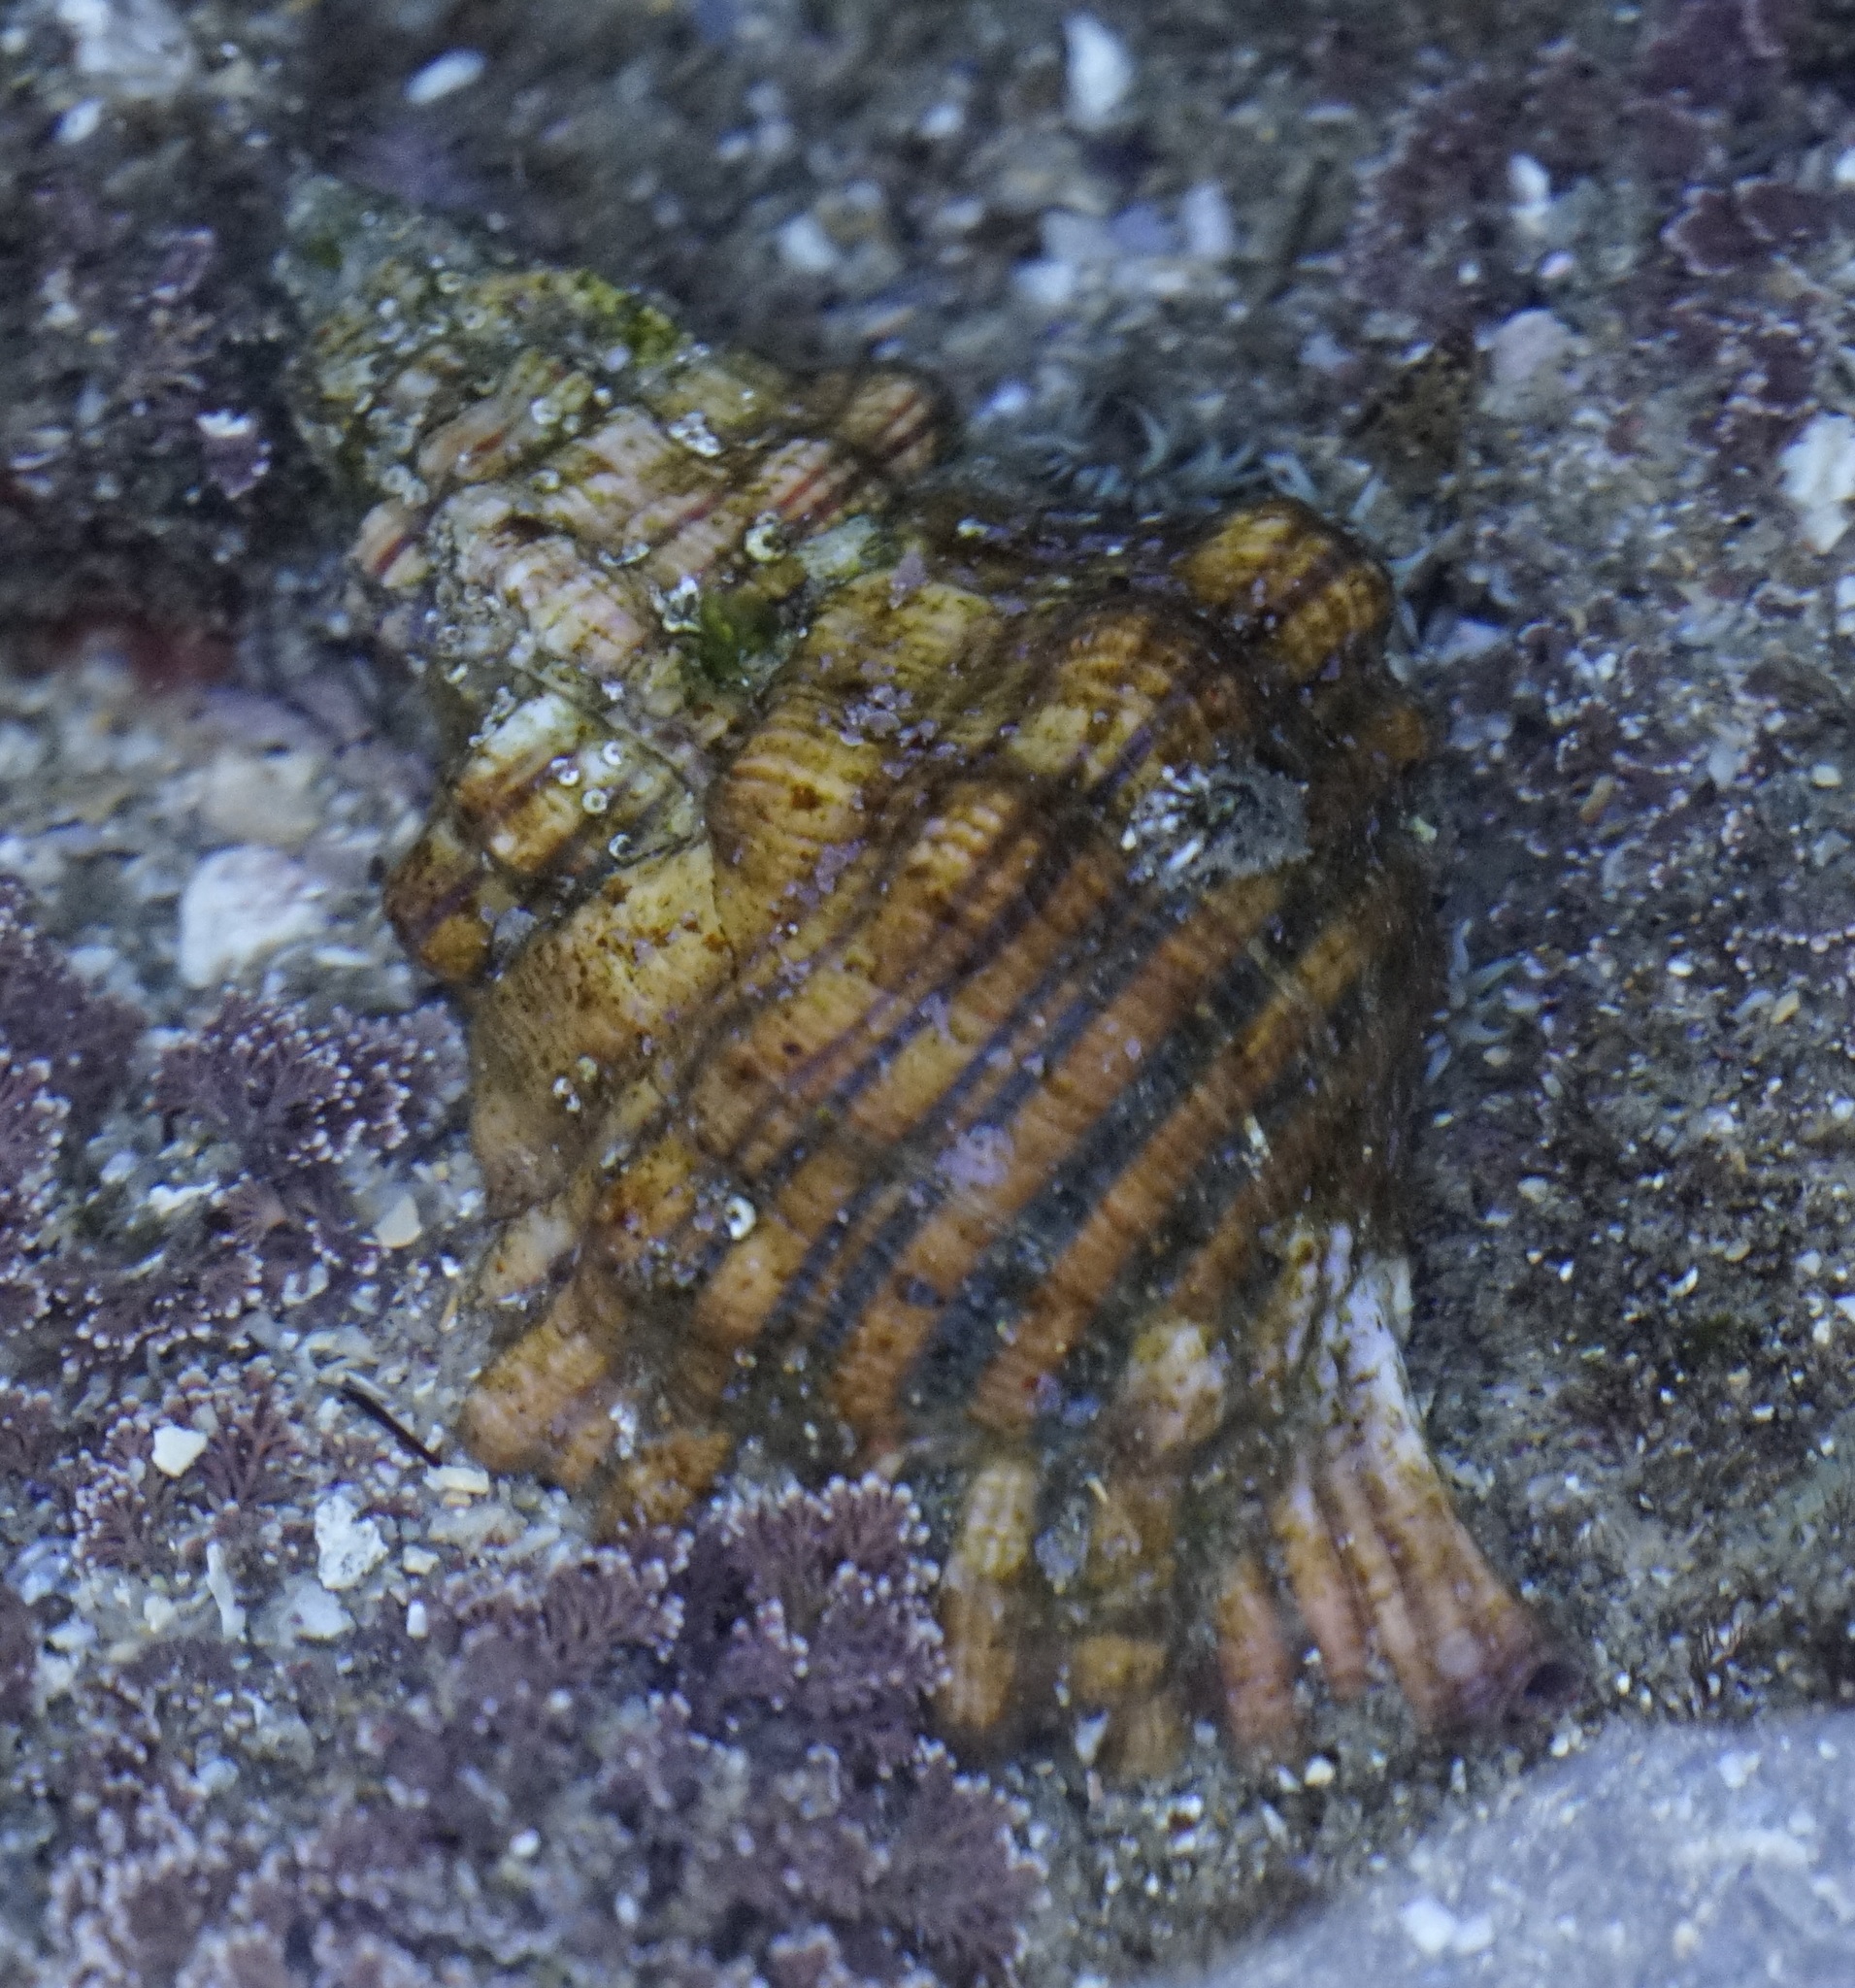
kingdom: Animalia
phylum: Mollusca
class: Gastropoda
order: Littorinimorpha
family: Cymatiidae
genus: Cabestana
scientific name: Cabestana spengleri
